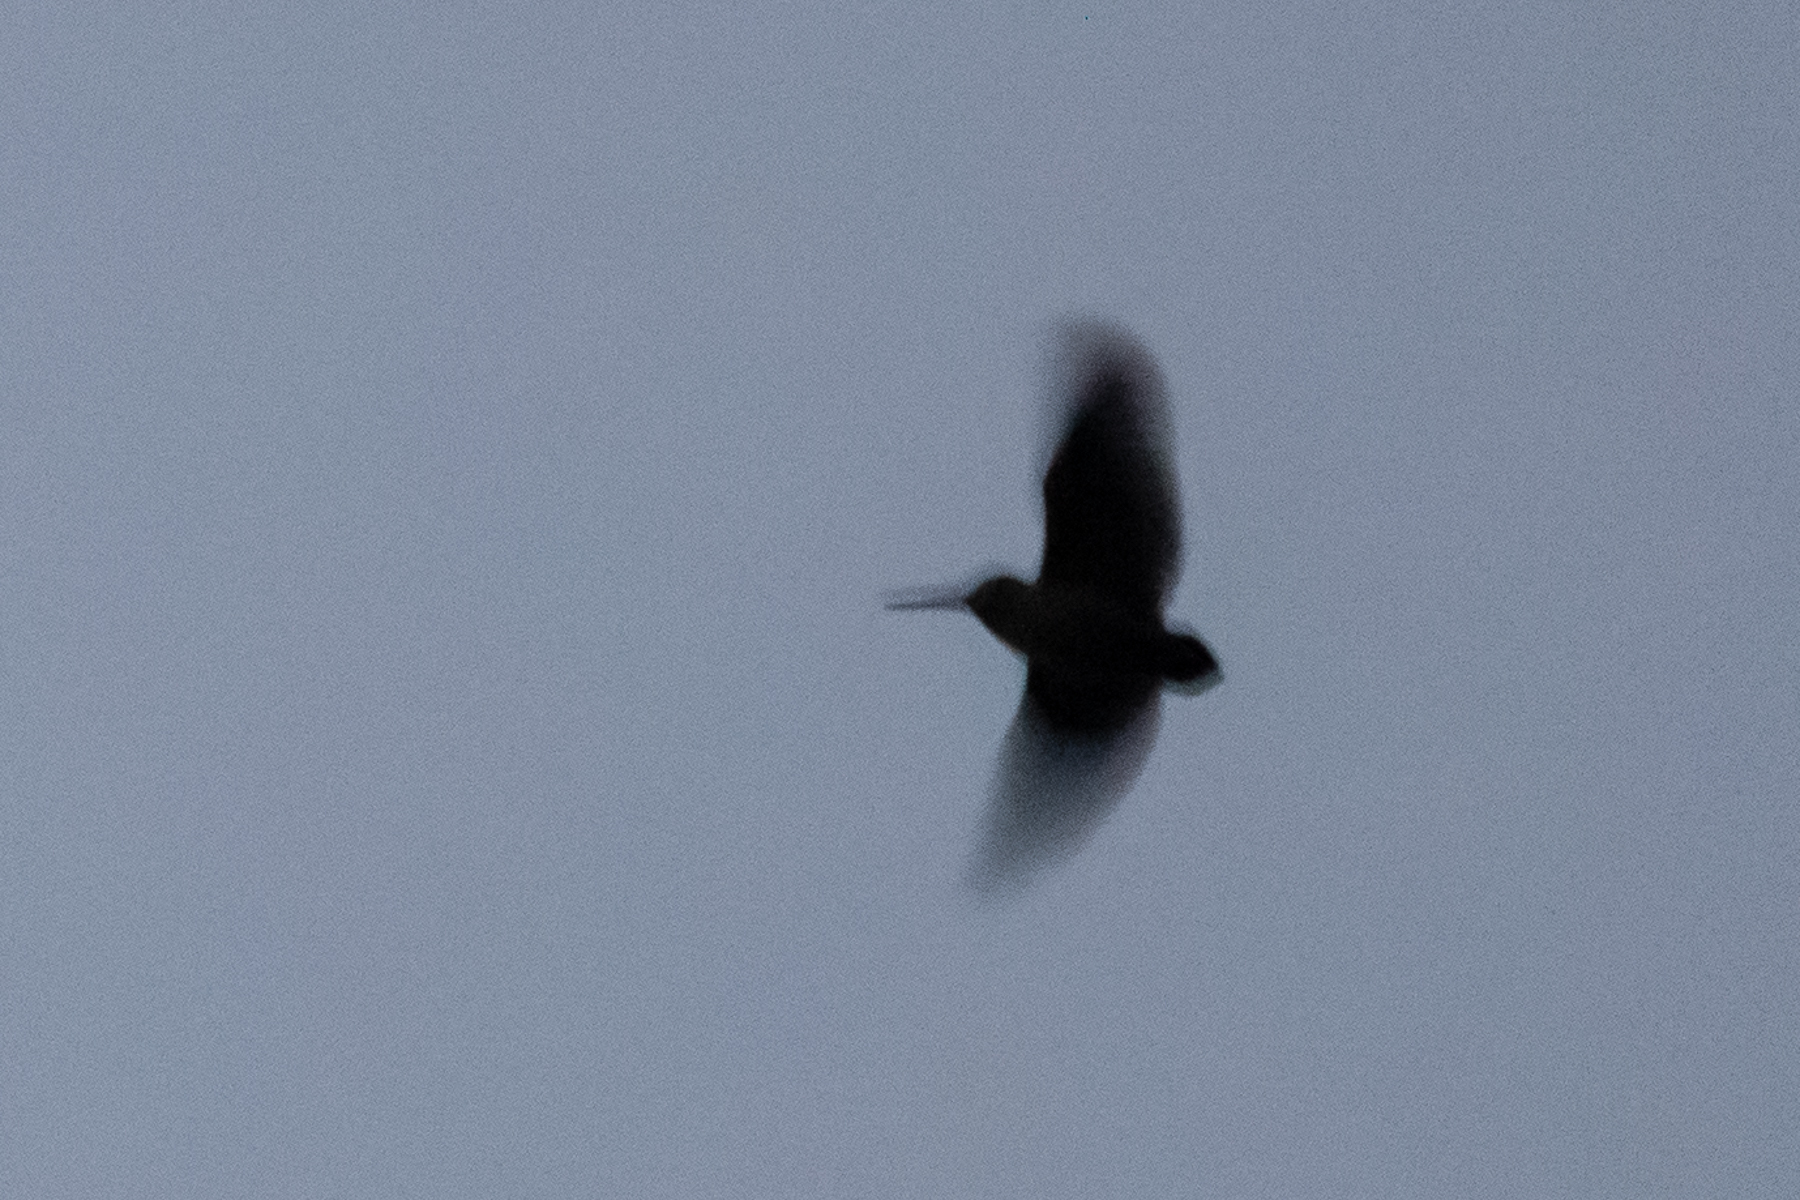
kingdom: Animalia
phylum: Chordata
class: Aves
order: Charadriiformes
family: Scolopacidae
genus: Scolopax
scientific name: Scolopax minor
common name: American woodcock
